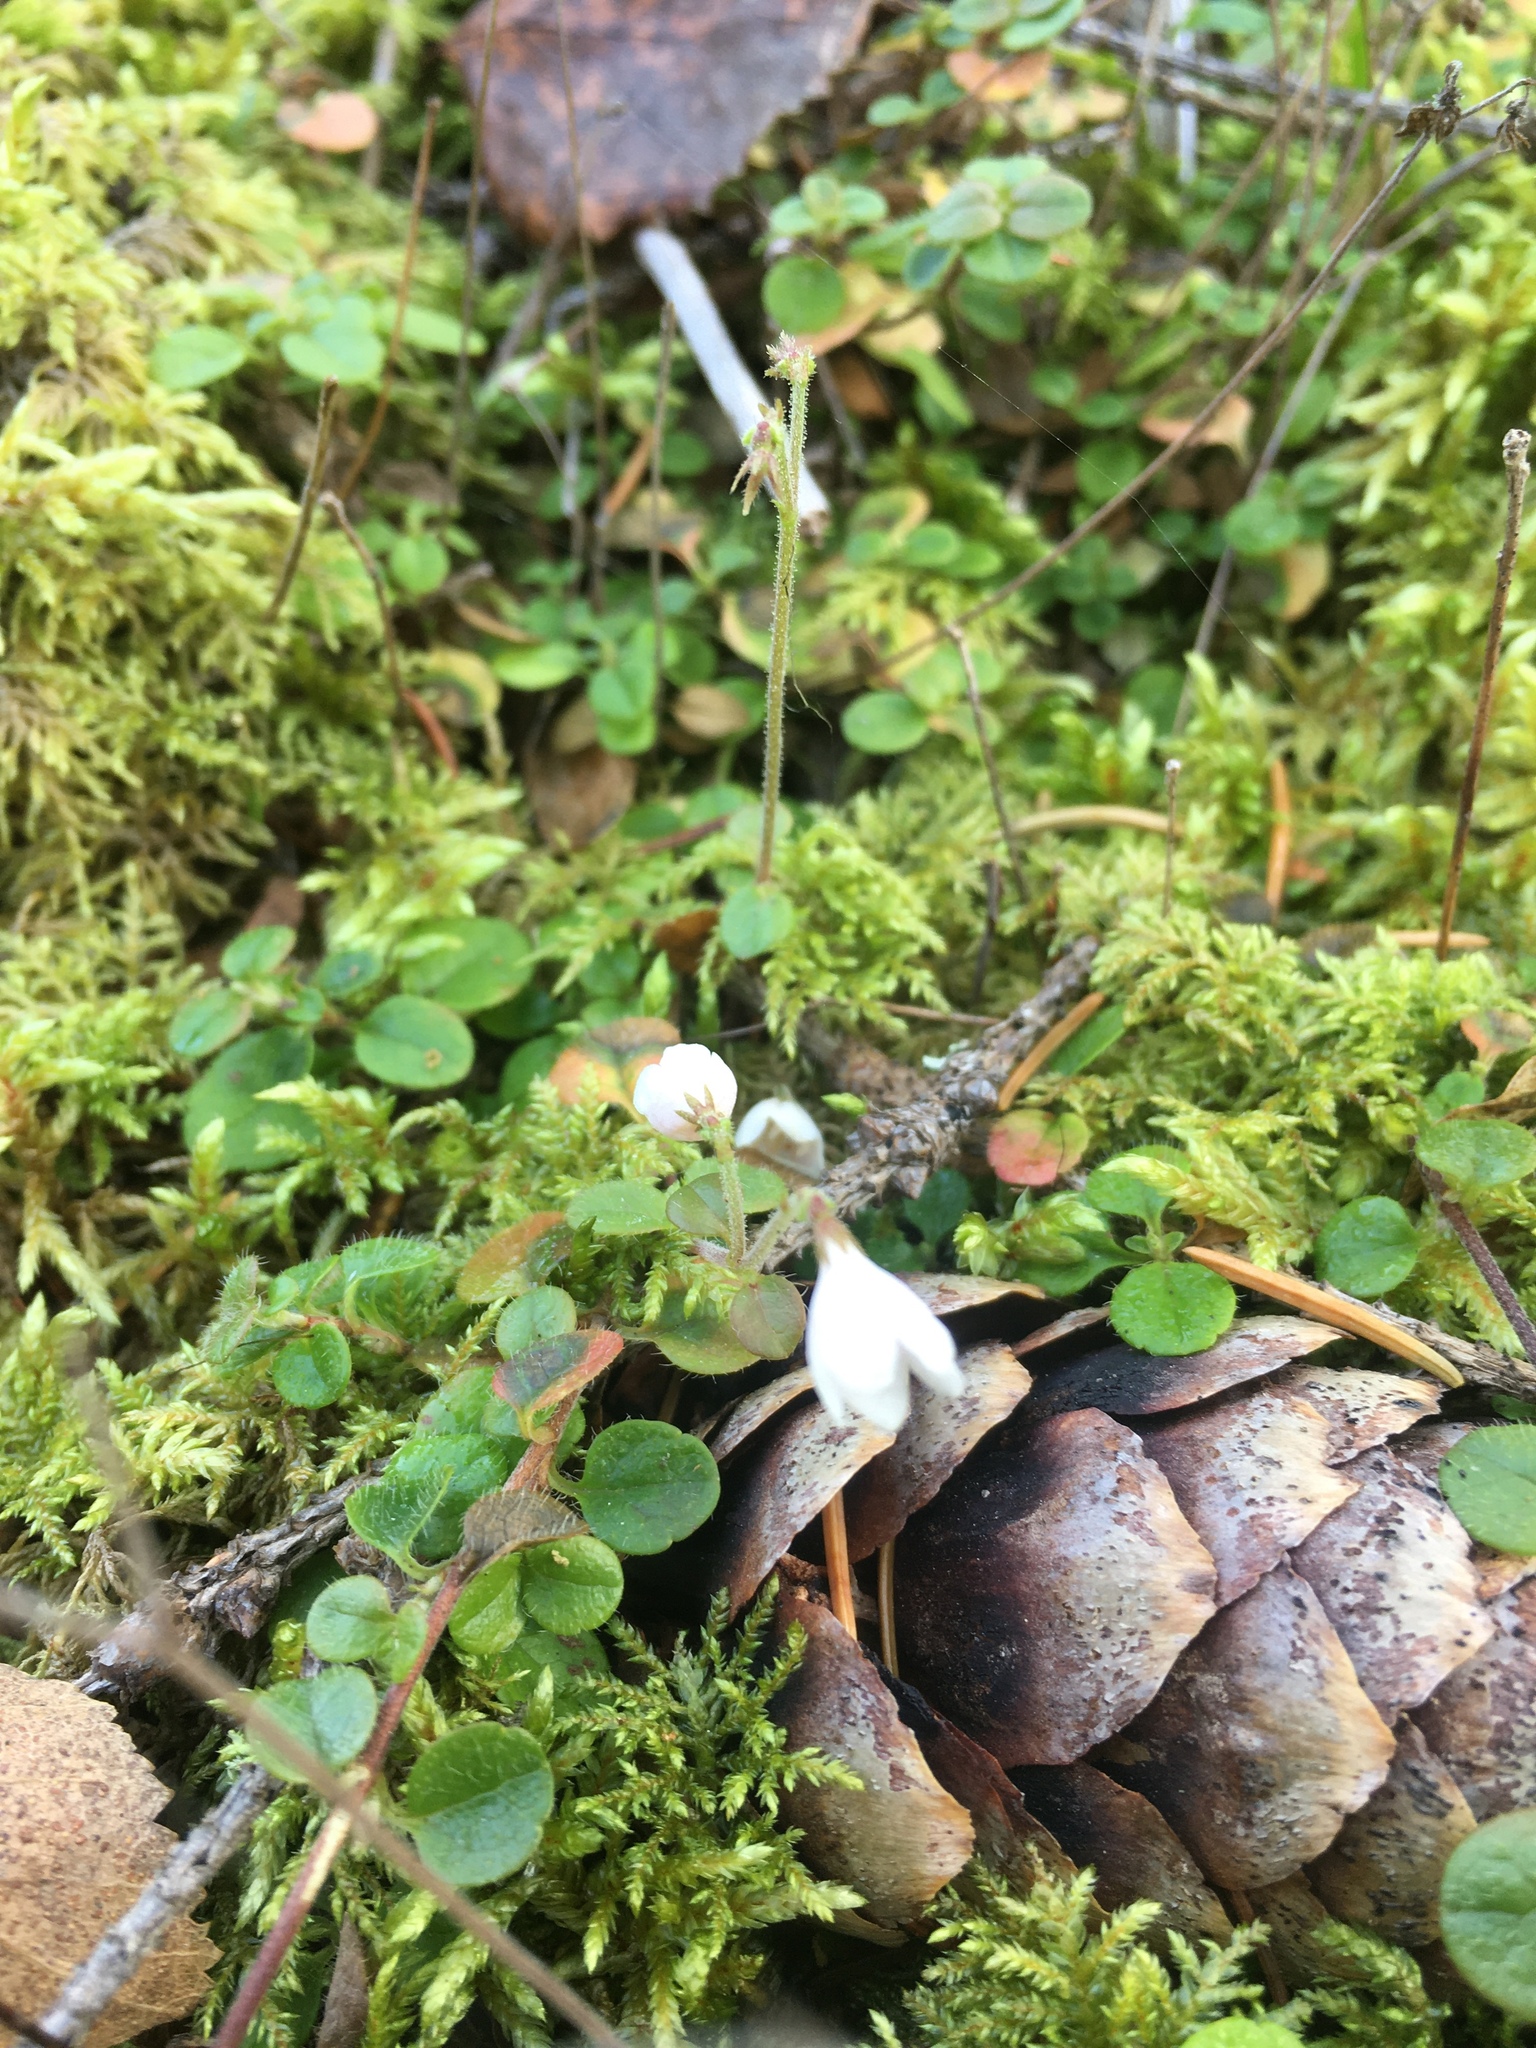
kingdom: Plantae
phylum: Tracheophyta
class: Magnoliopsida
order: Dipsacales
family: Caprifoliaceae
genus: Linnaea
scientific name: Linnaea borealis
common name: Twinflower
